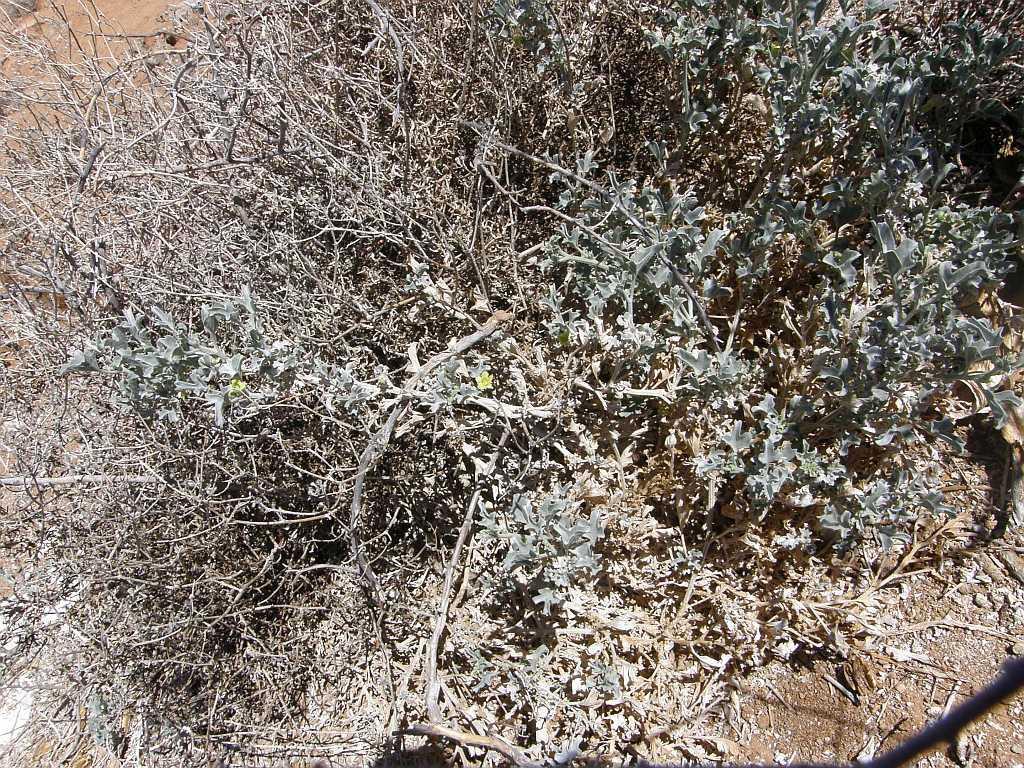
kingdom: Plantae
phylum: Tracheophyta
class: Magnoliopsida
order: Cucurbitales
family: Cucurbitaceae
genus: Cucumis
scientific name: Cucumis rigidus
